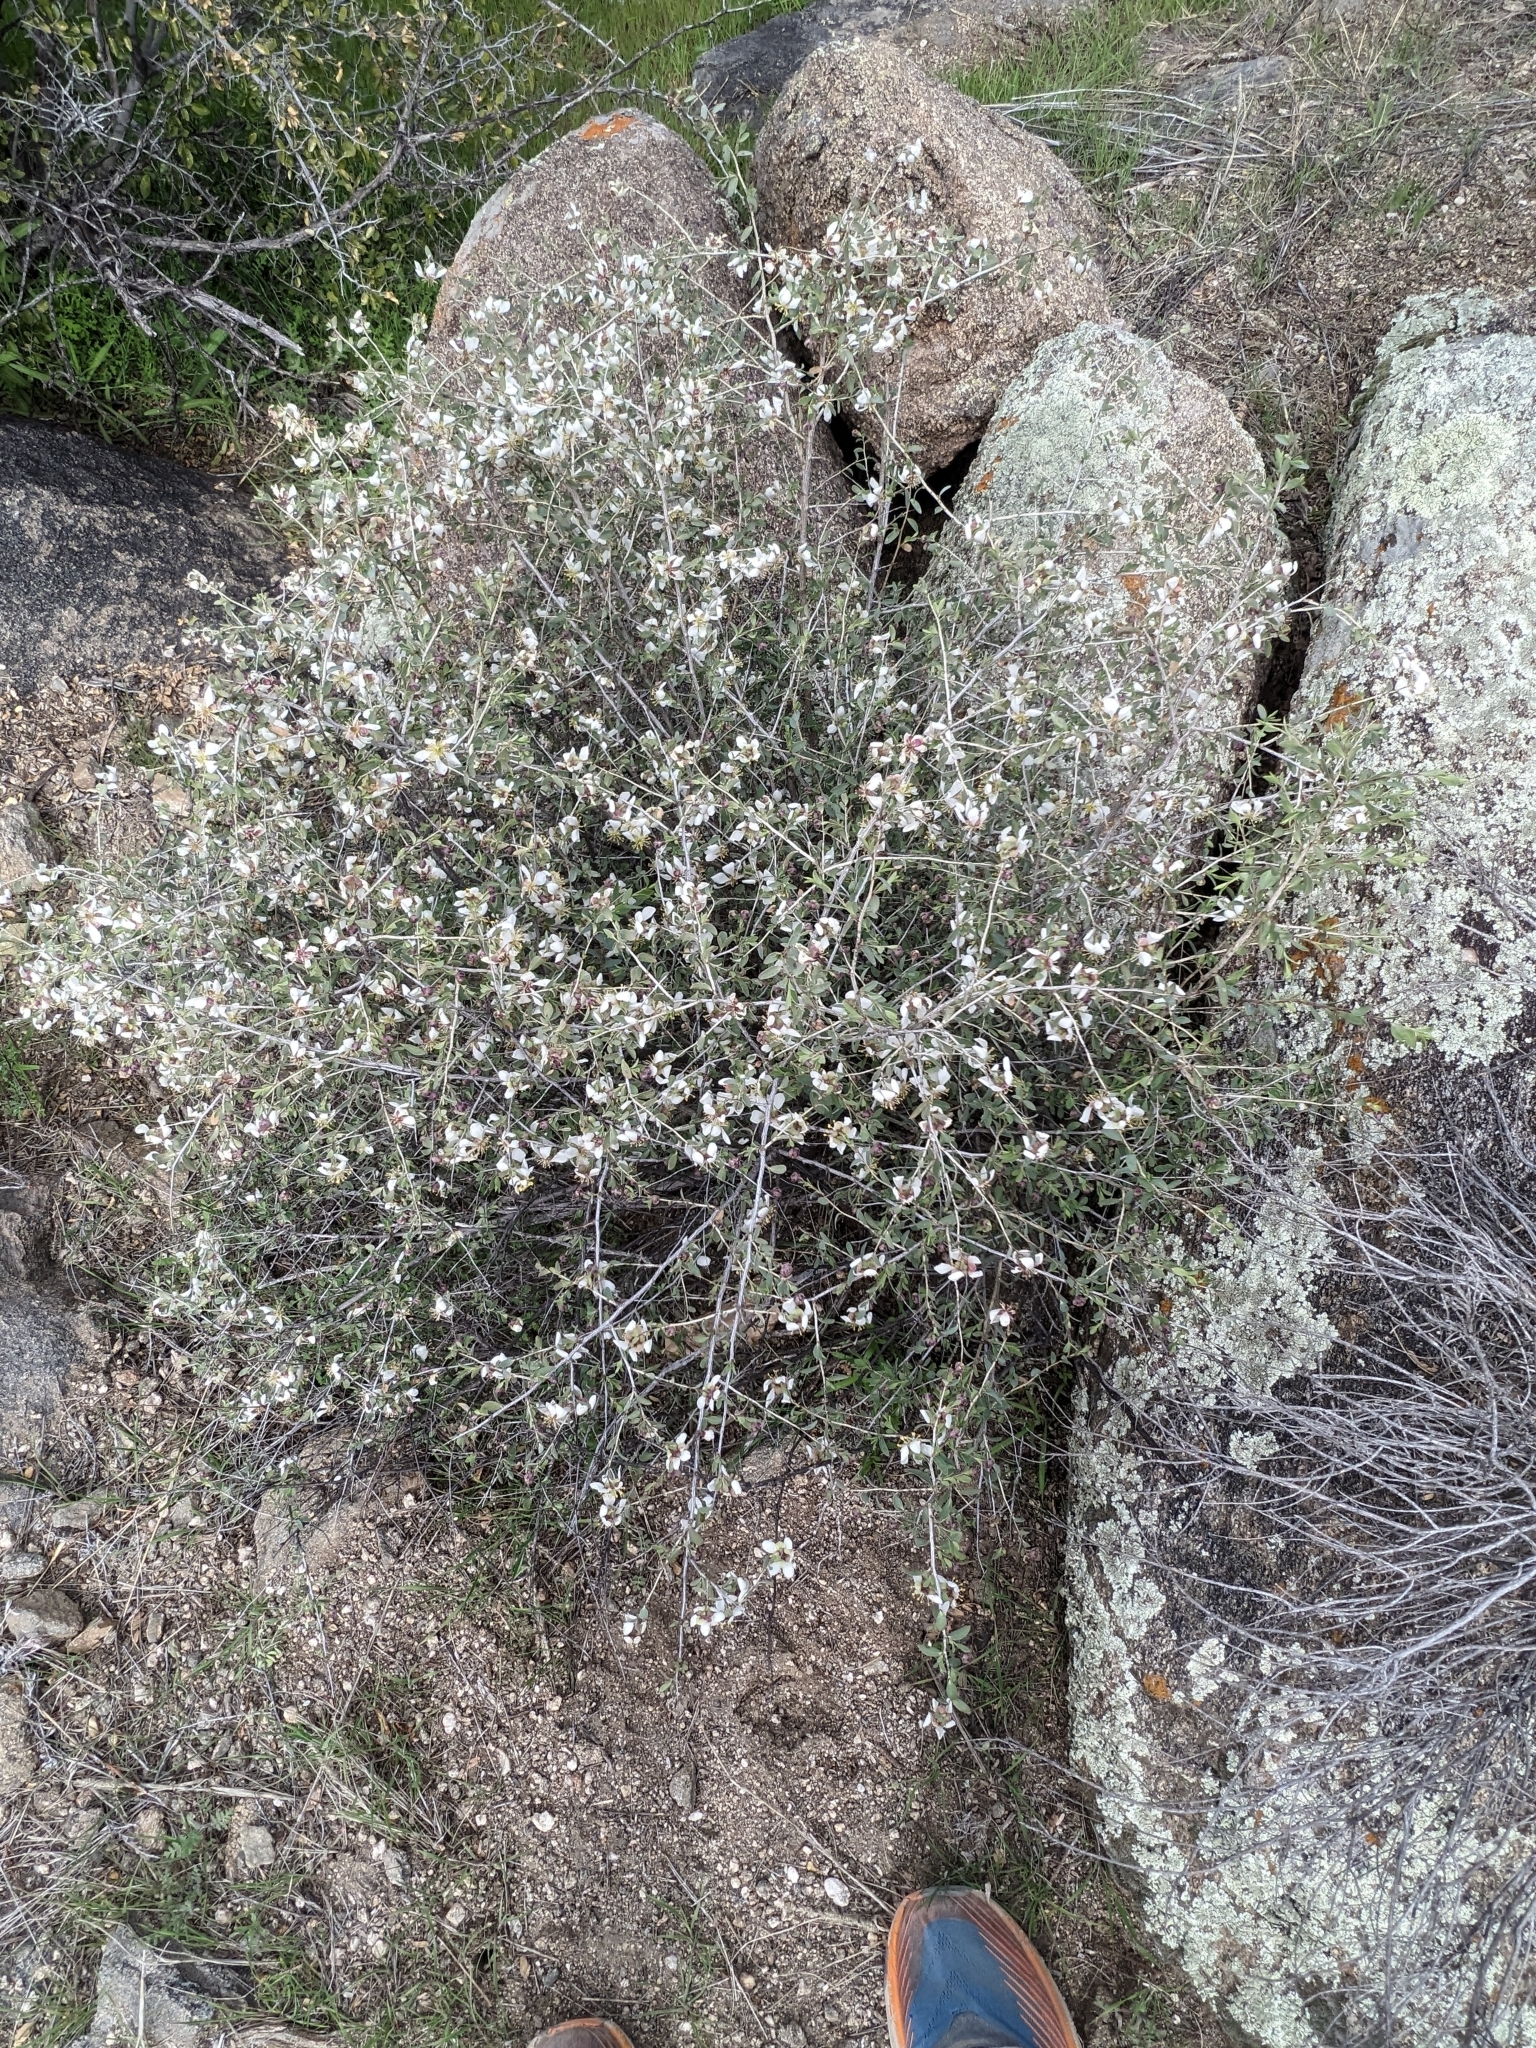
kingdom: Plantae
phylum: Tracheophyta
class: Magnoliopsida
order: Crossosomatales
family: Crossosomataceae
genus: Crossosoma
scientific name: Crossosoma bigelovii
